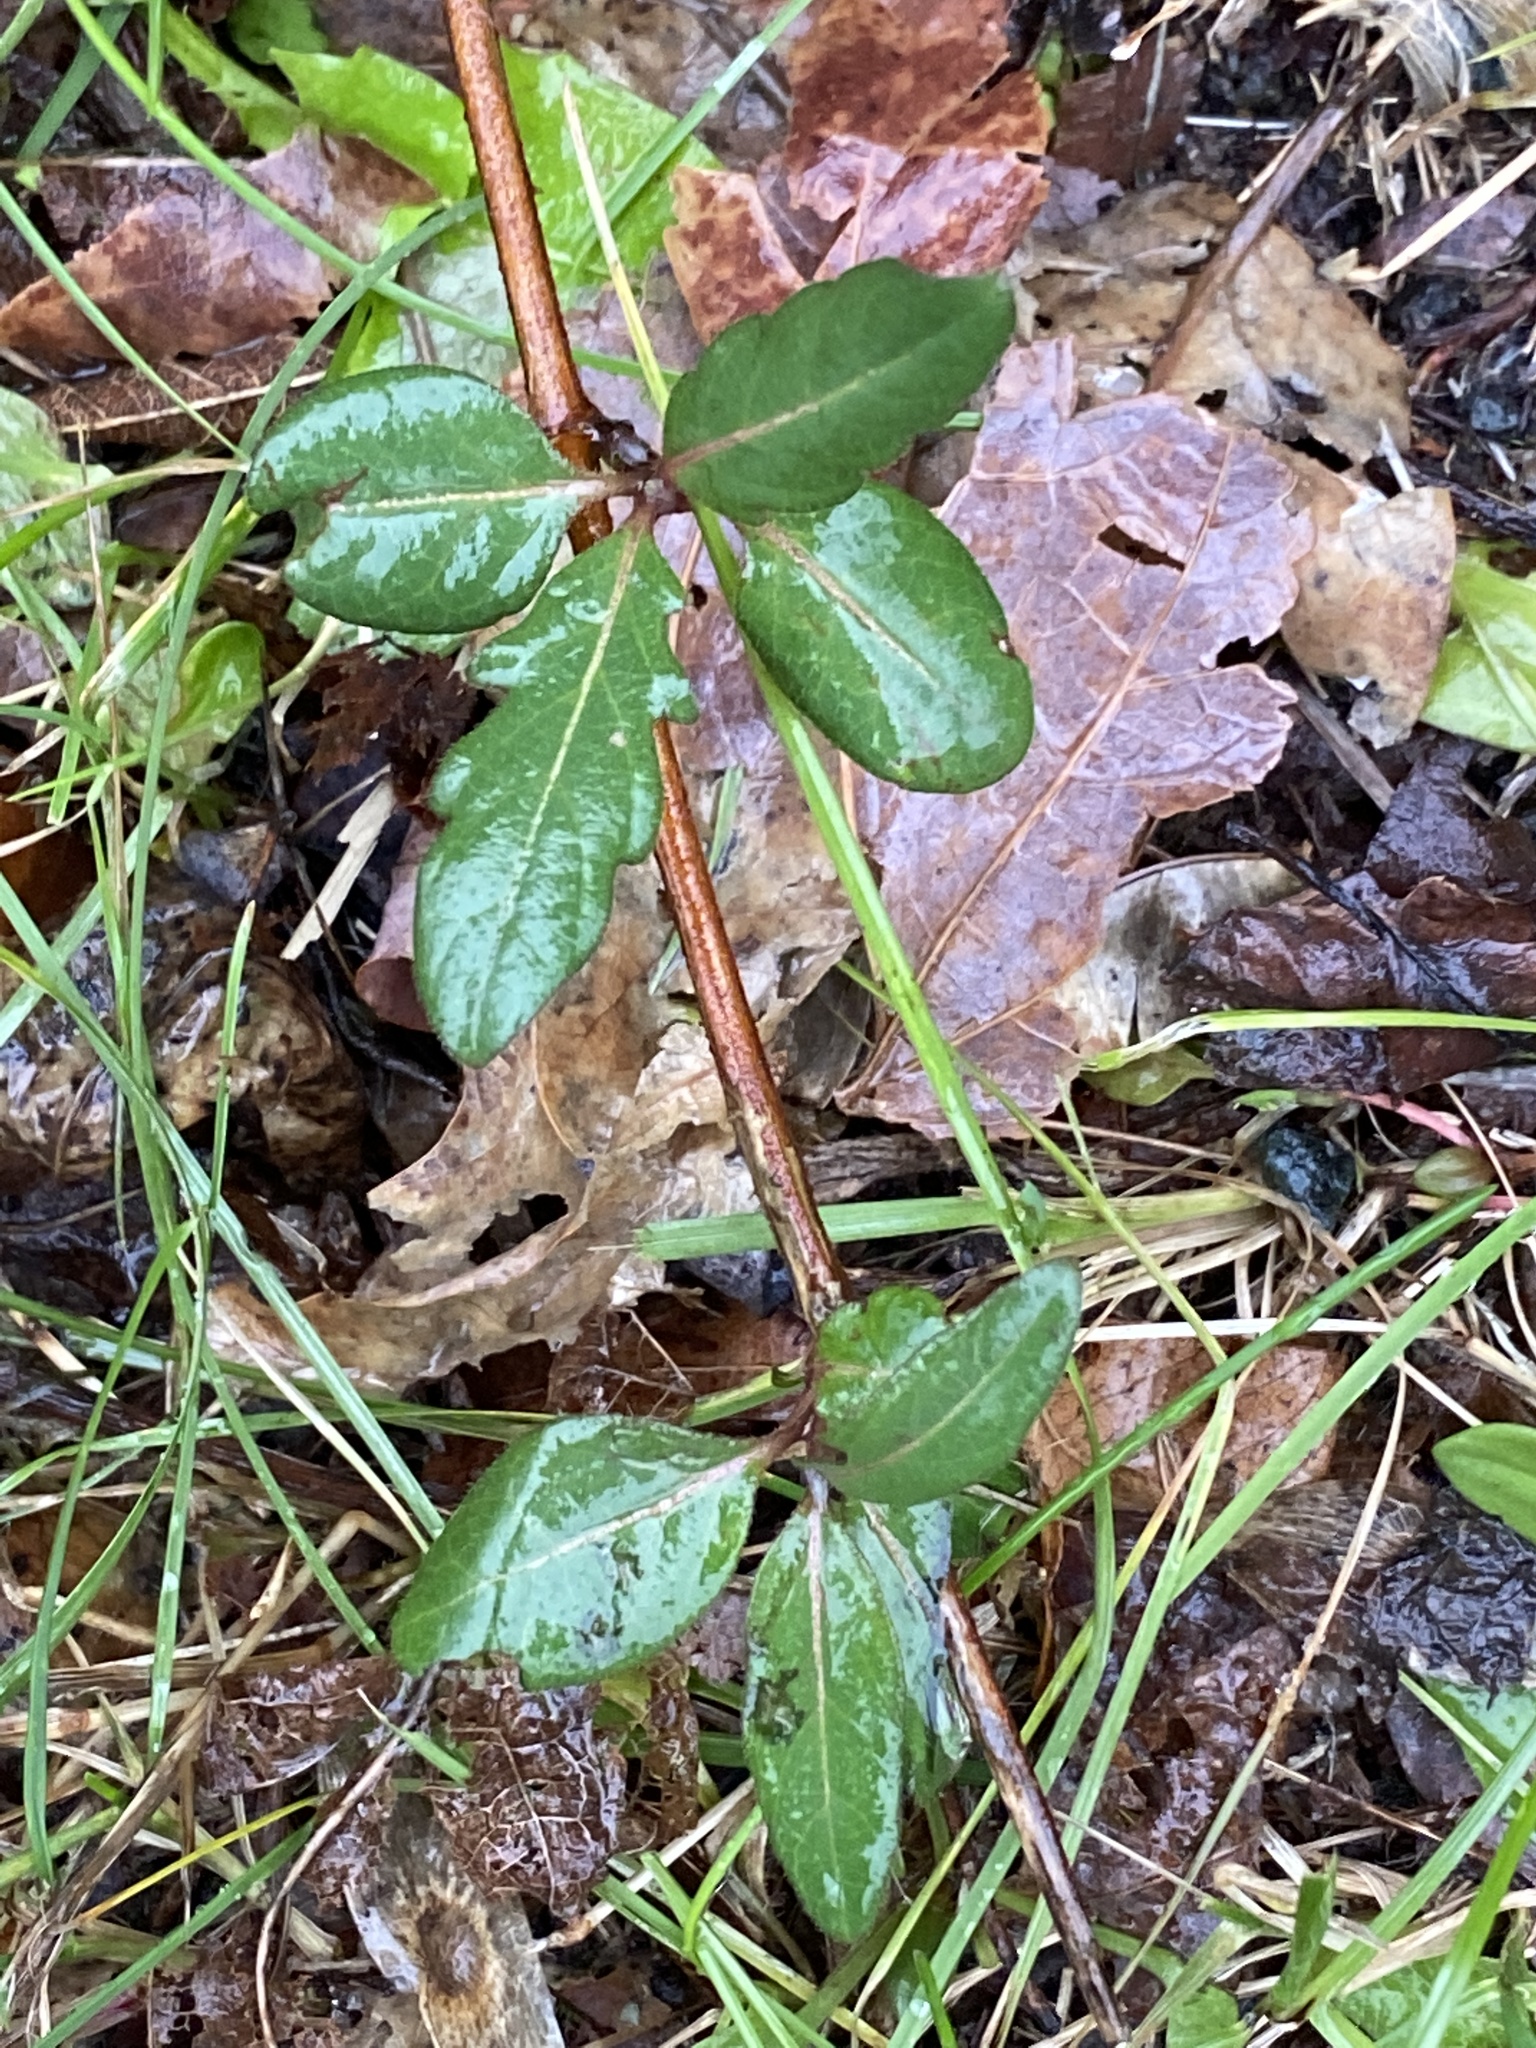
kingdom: Plantae
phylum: Tracheophyta
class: Magnoliopsida
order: Dipsacales
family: Caprifoliaceae
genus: Lonicera
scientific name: Lonicera japonica
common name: Japanese honeysuckle
